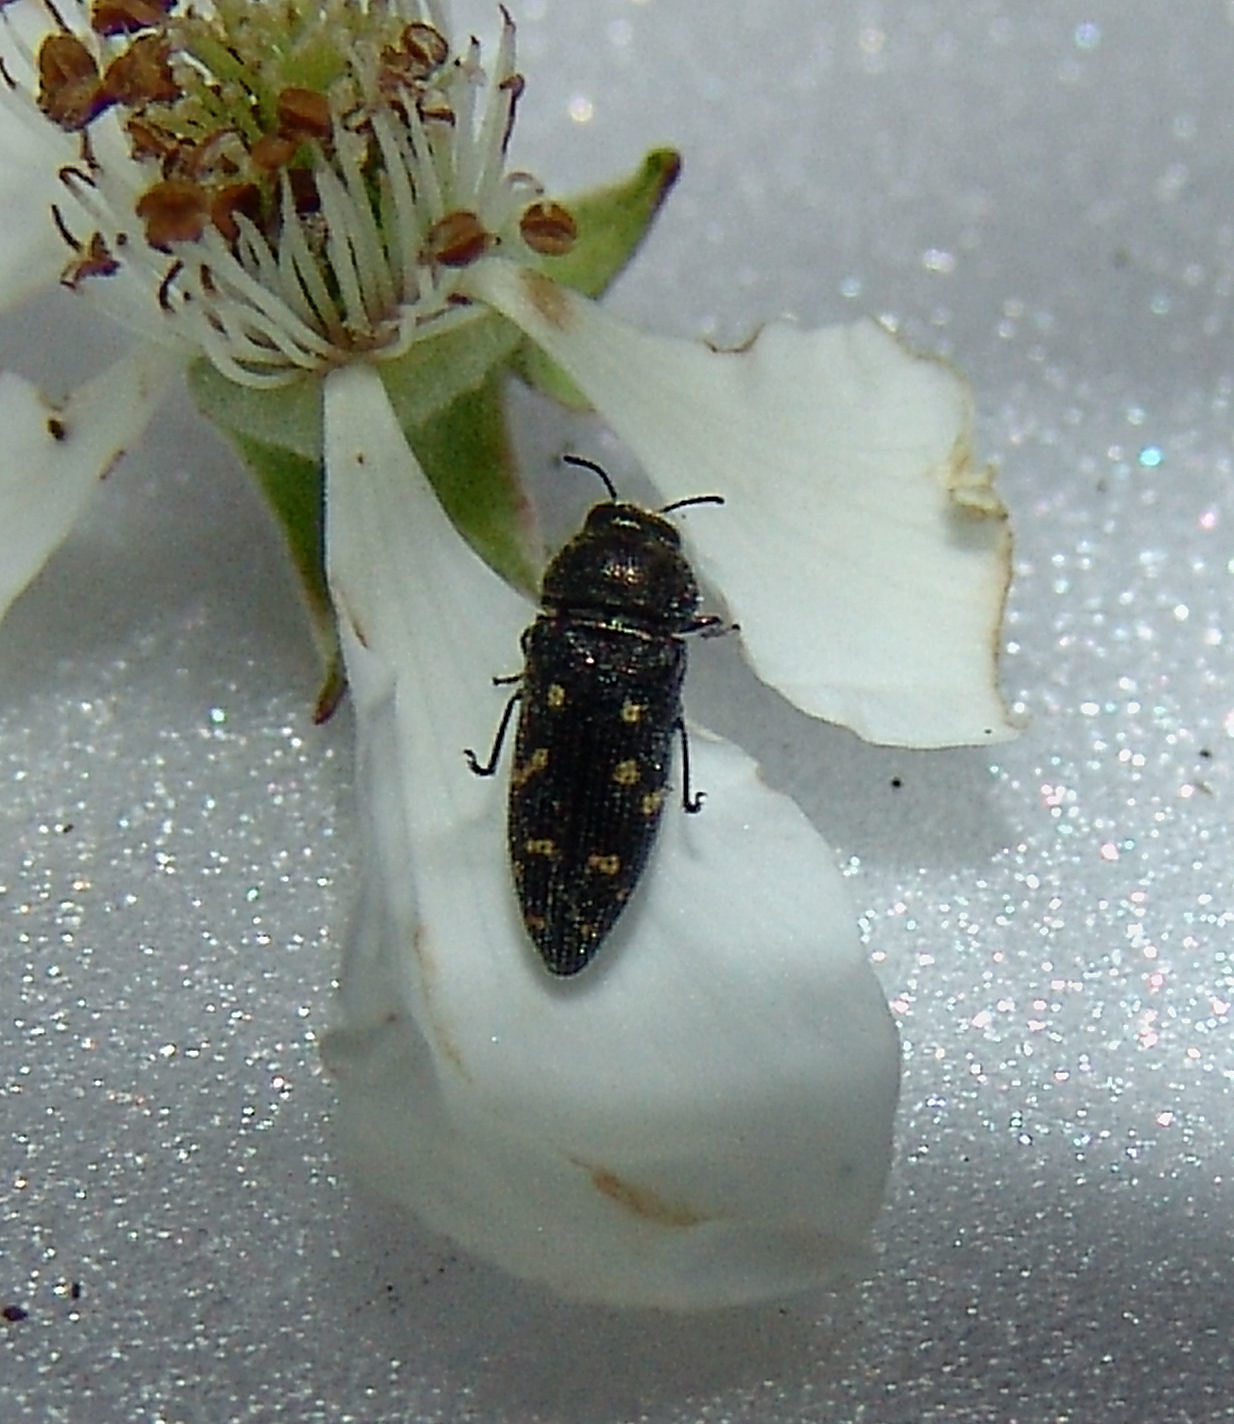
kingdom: Animalia
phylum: Arthropoda
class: Insecta
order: Coleoptera
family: Buprestidae
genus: Acmaeodera
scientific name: Acmaeodera tubulus
